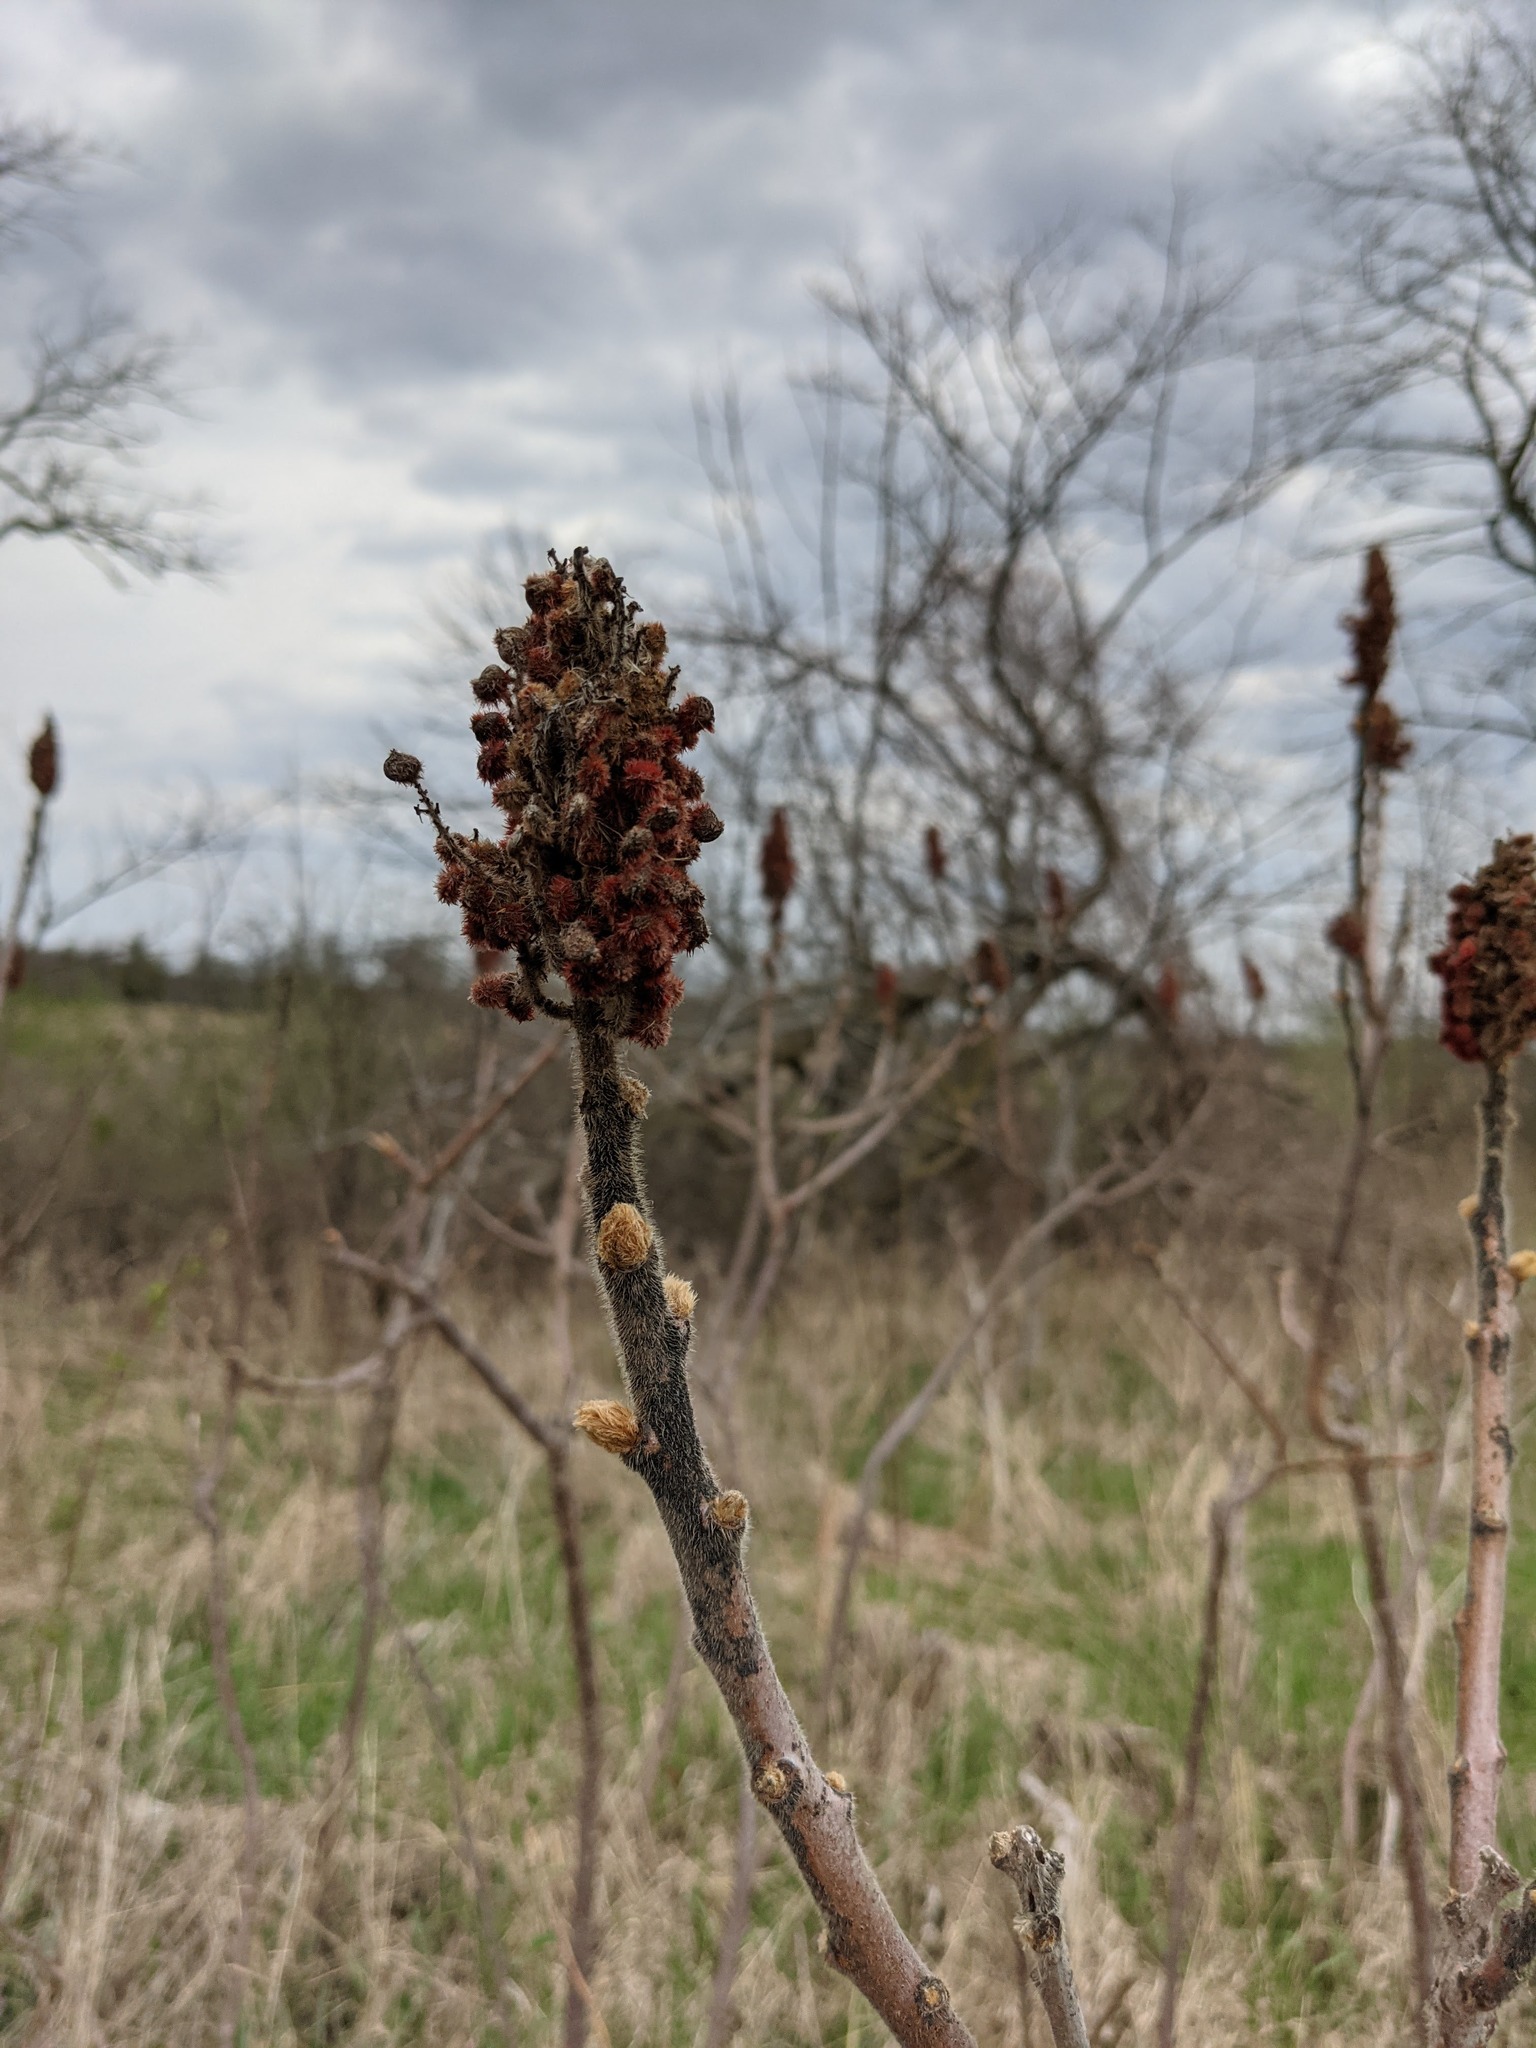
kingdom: Plantae
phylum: Tracheophyta
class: Magnoliopsida
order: Sapindales
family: Anacardiaceae
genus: Rhus
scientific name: Rhus typhina
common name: Staghorn sumac
